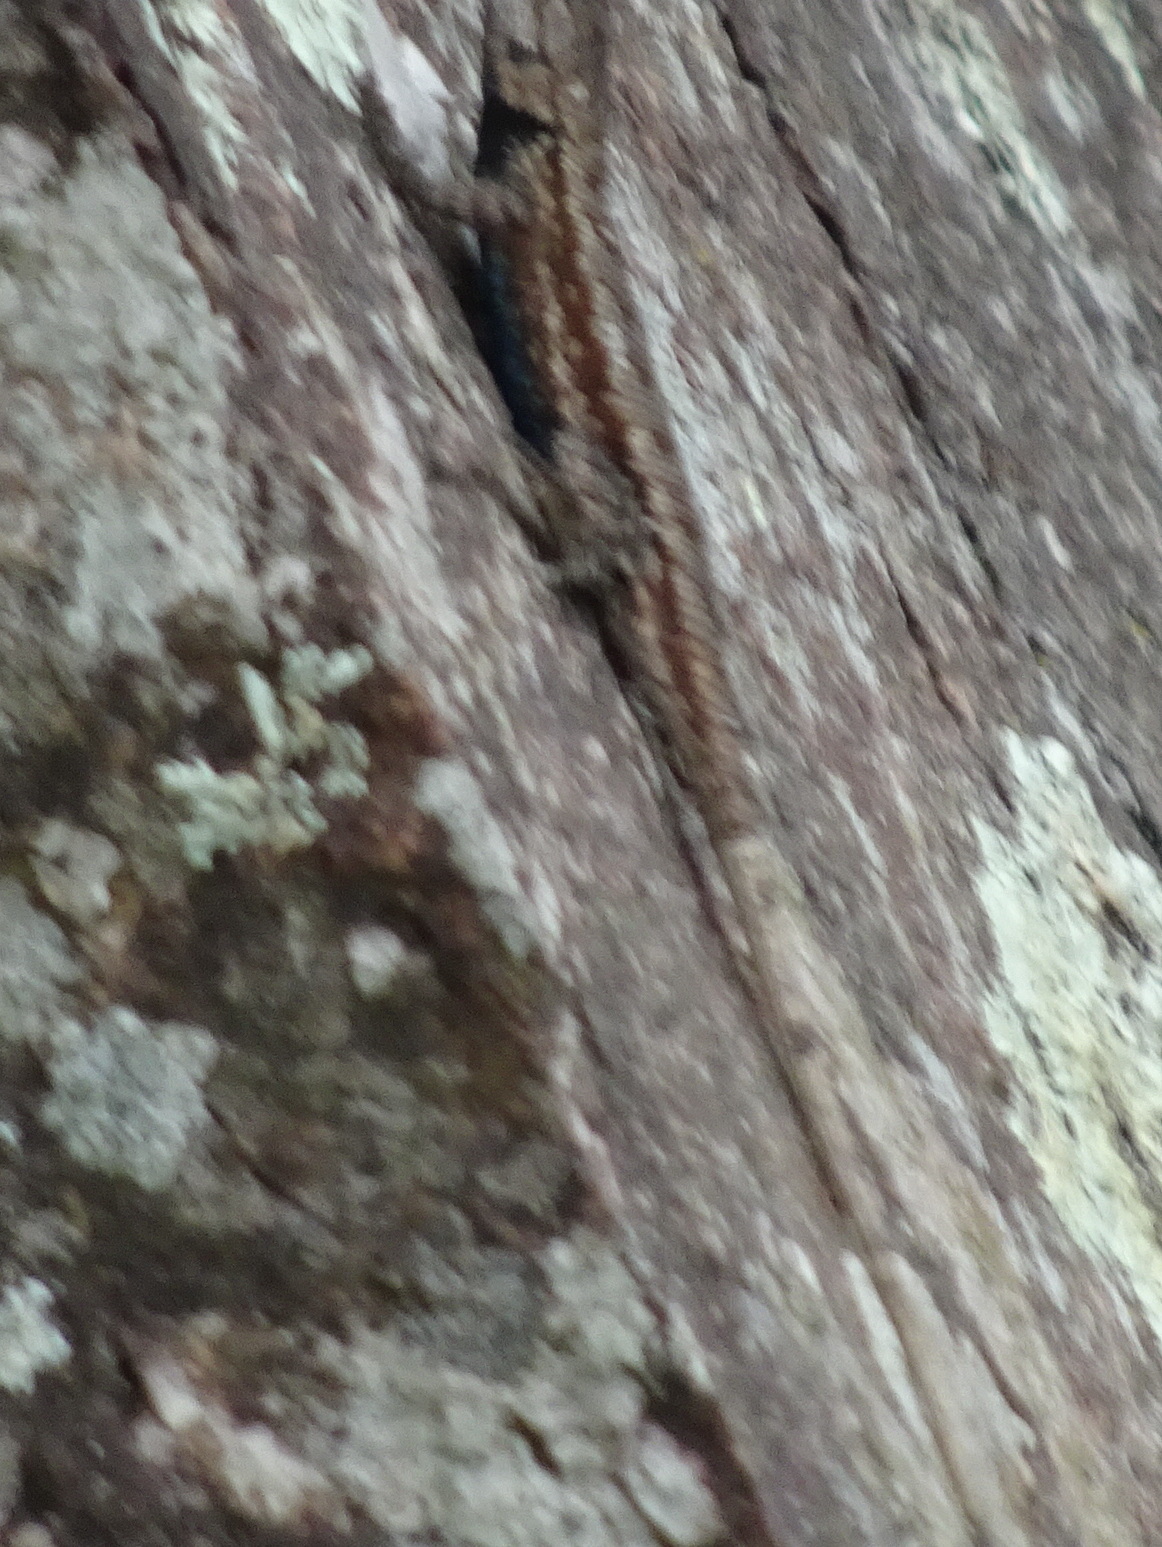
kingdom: Animalia
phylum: Chordata
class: Squamata
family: Phrynosomatidae
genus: Sceloporus
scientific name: Sceloporus consobrinus
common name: Southern prairie lizard
